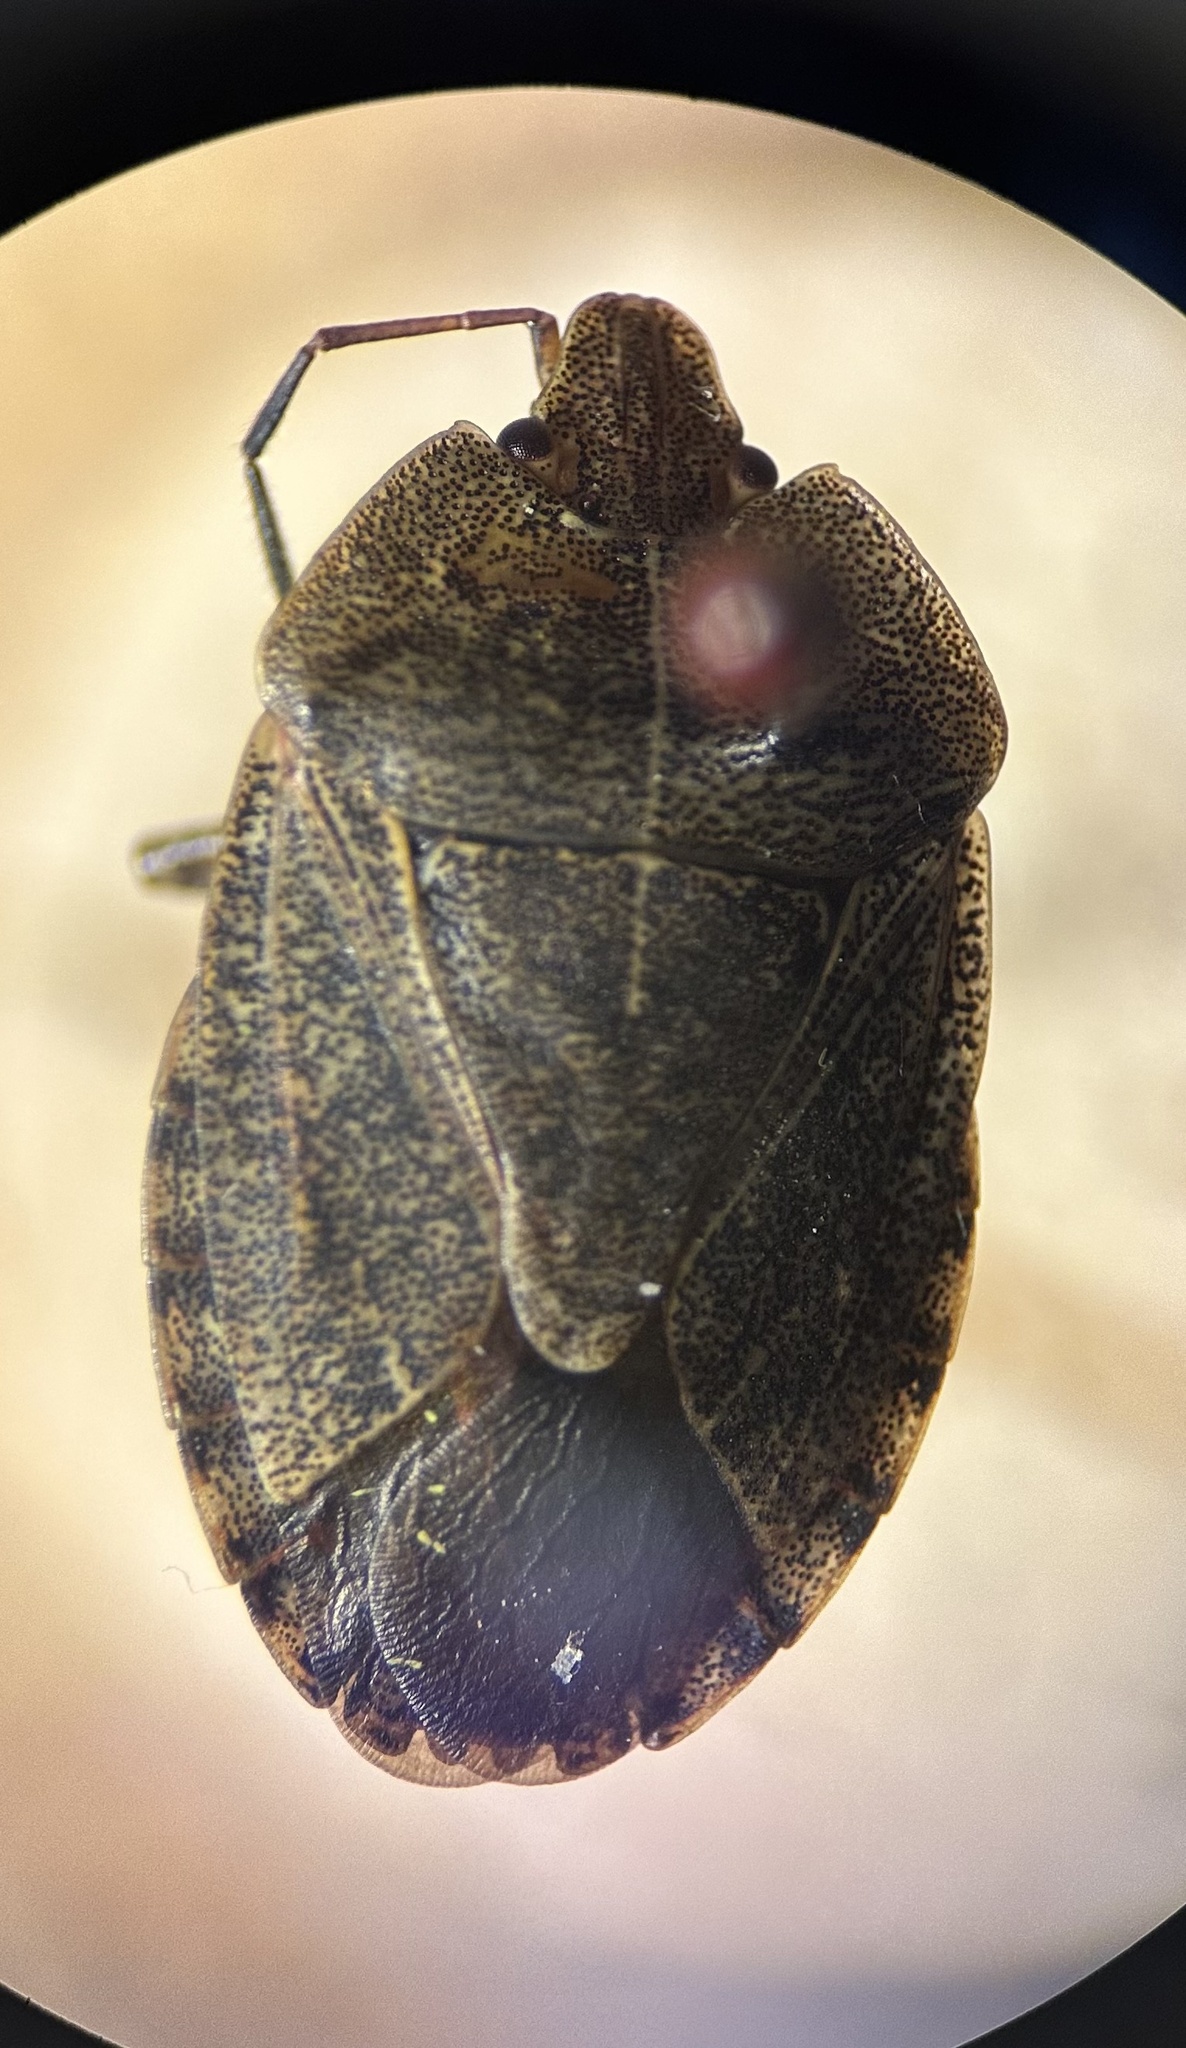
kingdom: Animalia
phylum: Arthropoda
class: Insecta
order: Hemiptera
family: Pentatomidae
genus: Menecles
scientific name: Menecles insertus
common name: Elf shoe stink bug
